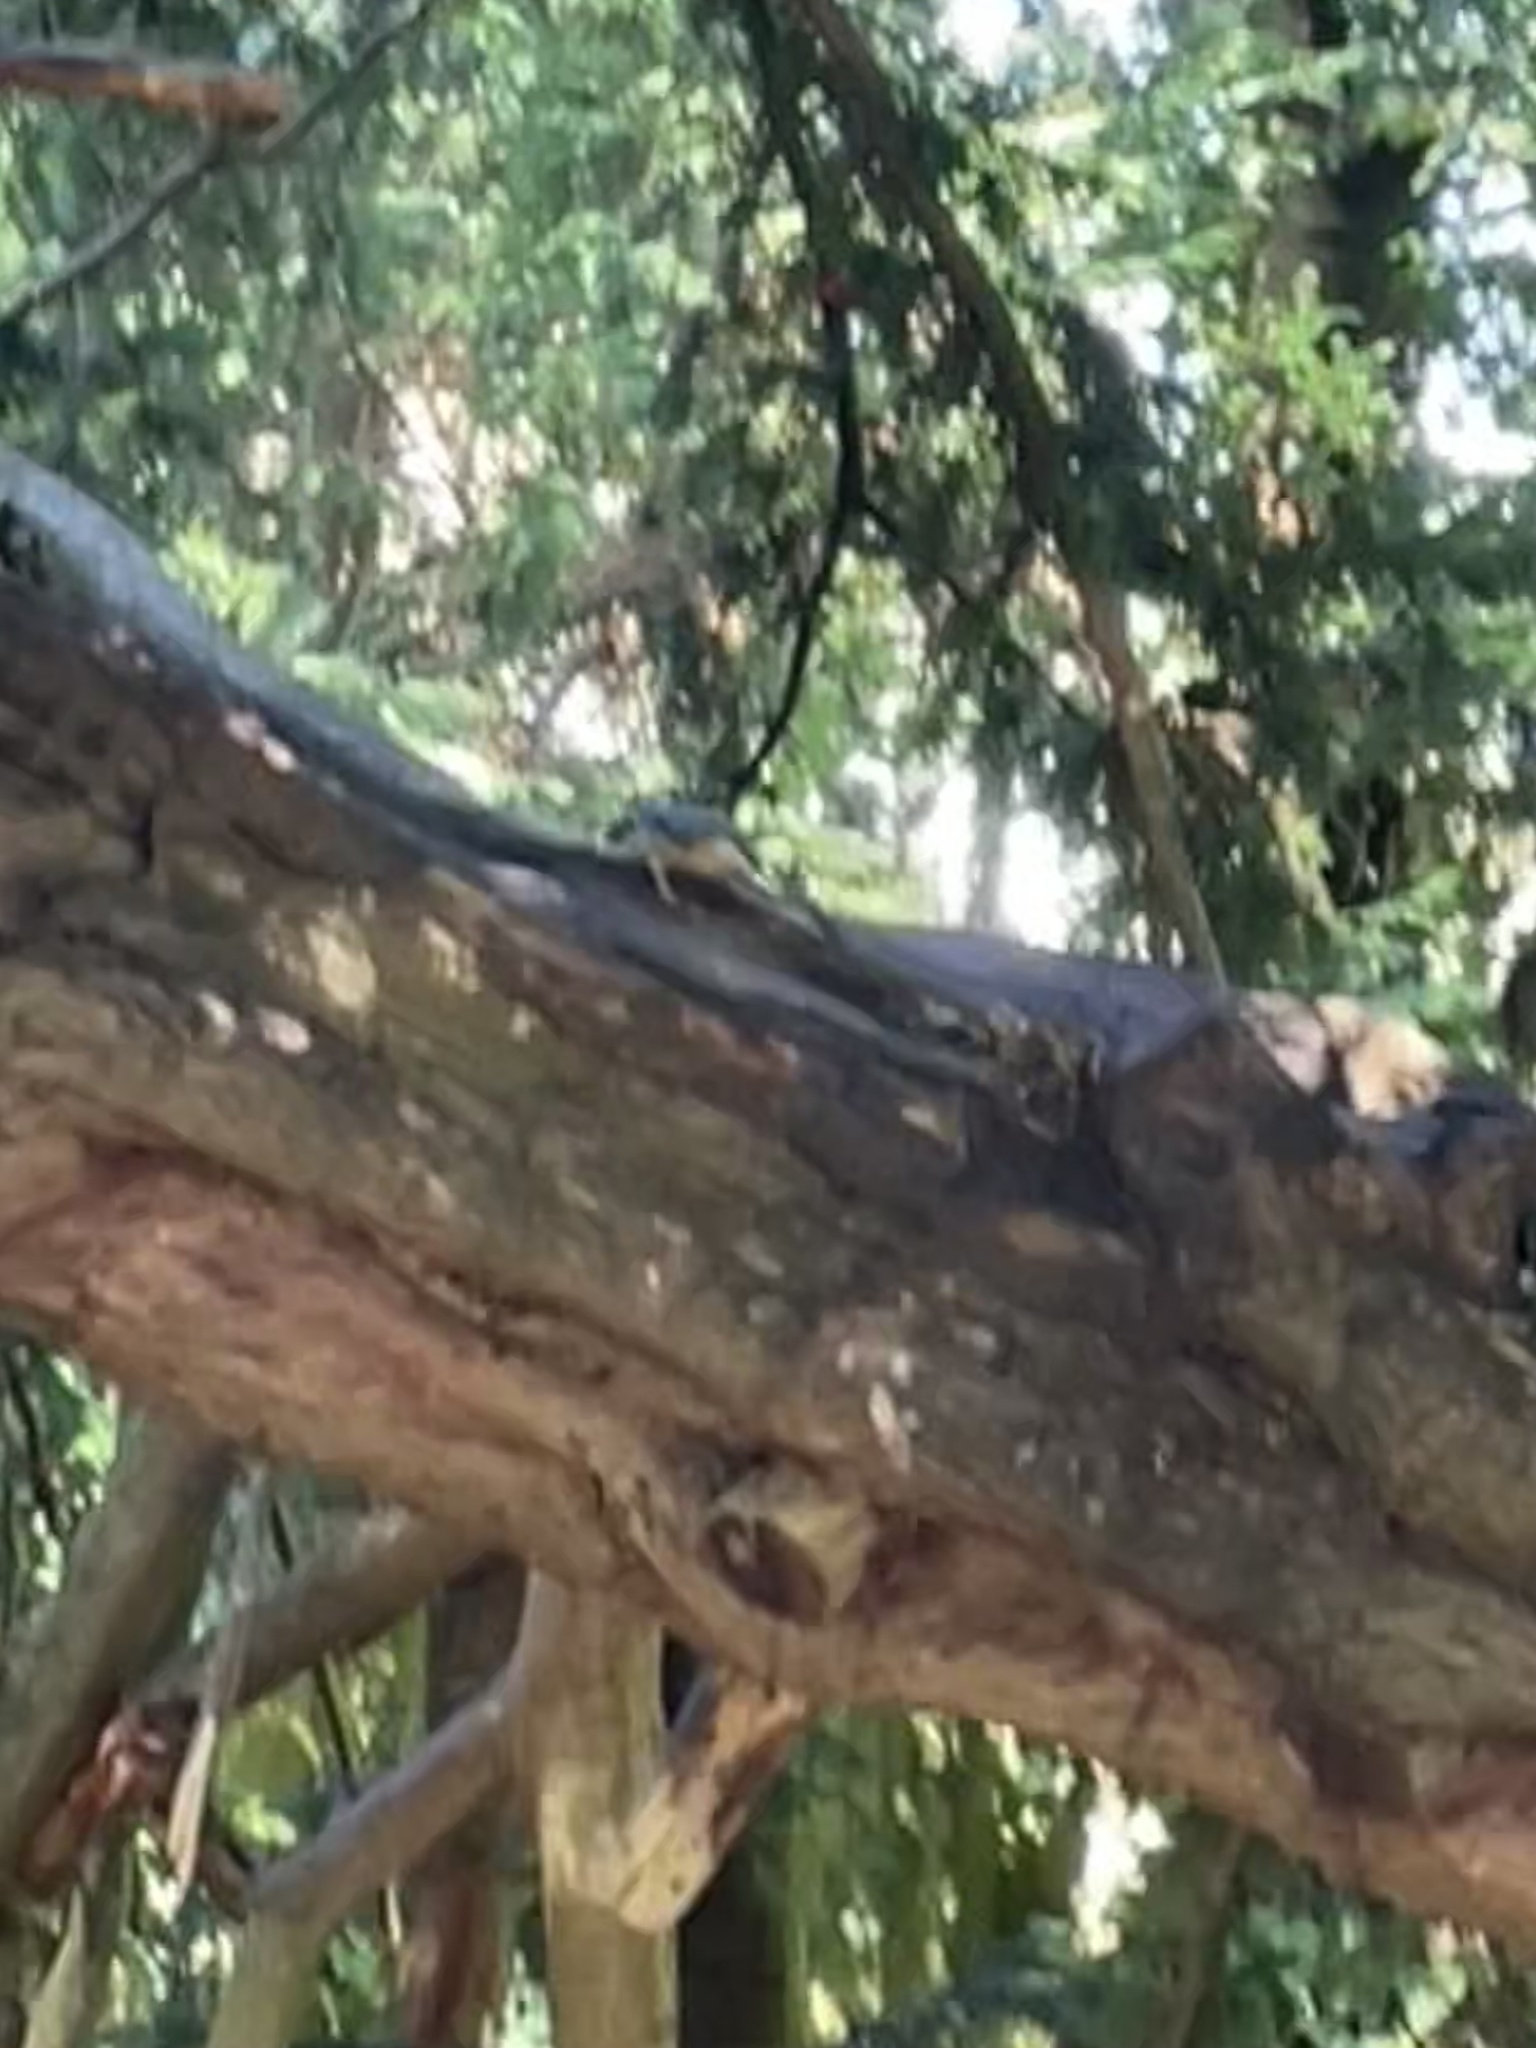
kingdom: Animalia
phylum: Chordata
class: Aves
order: Passeriformes
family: Sittidae
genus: Sitta
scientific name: Sitta europaea
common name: Eurasian nuthatch
